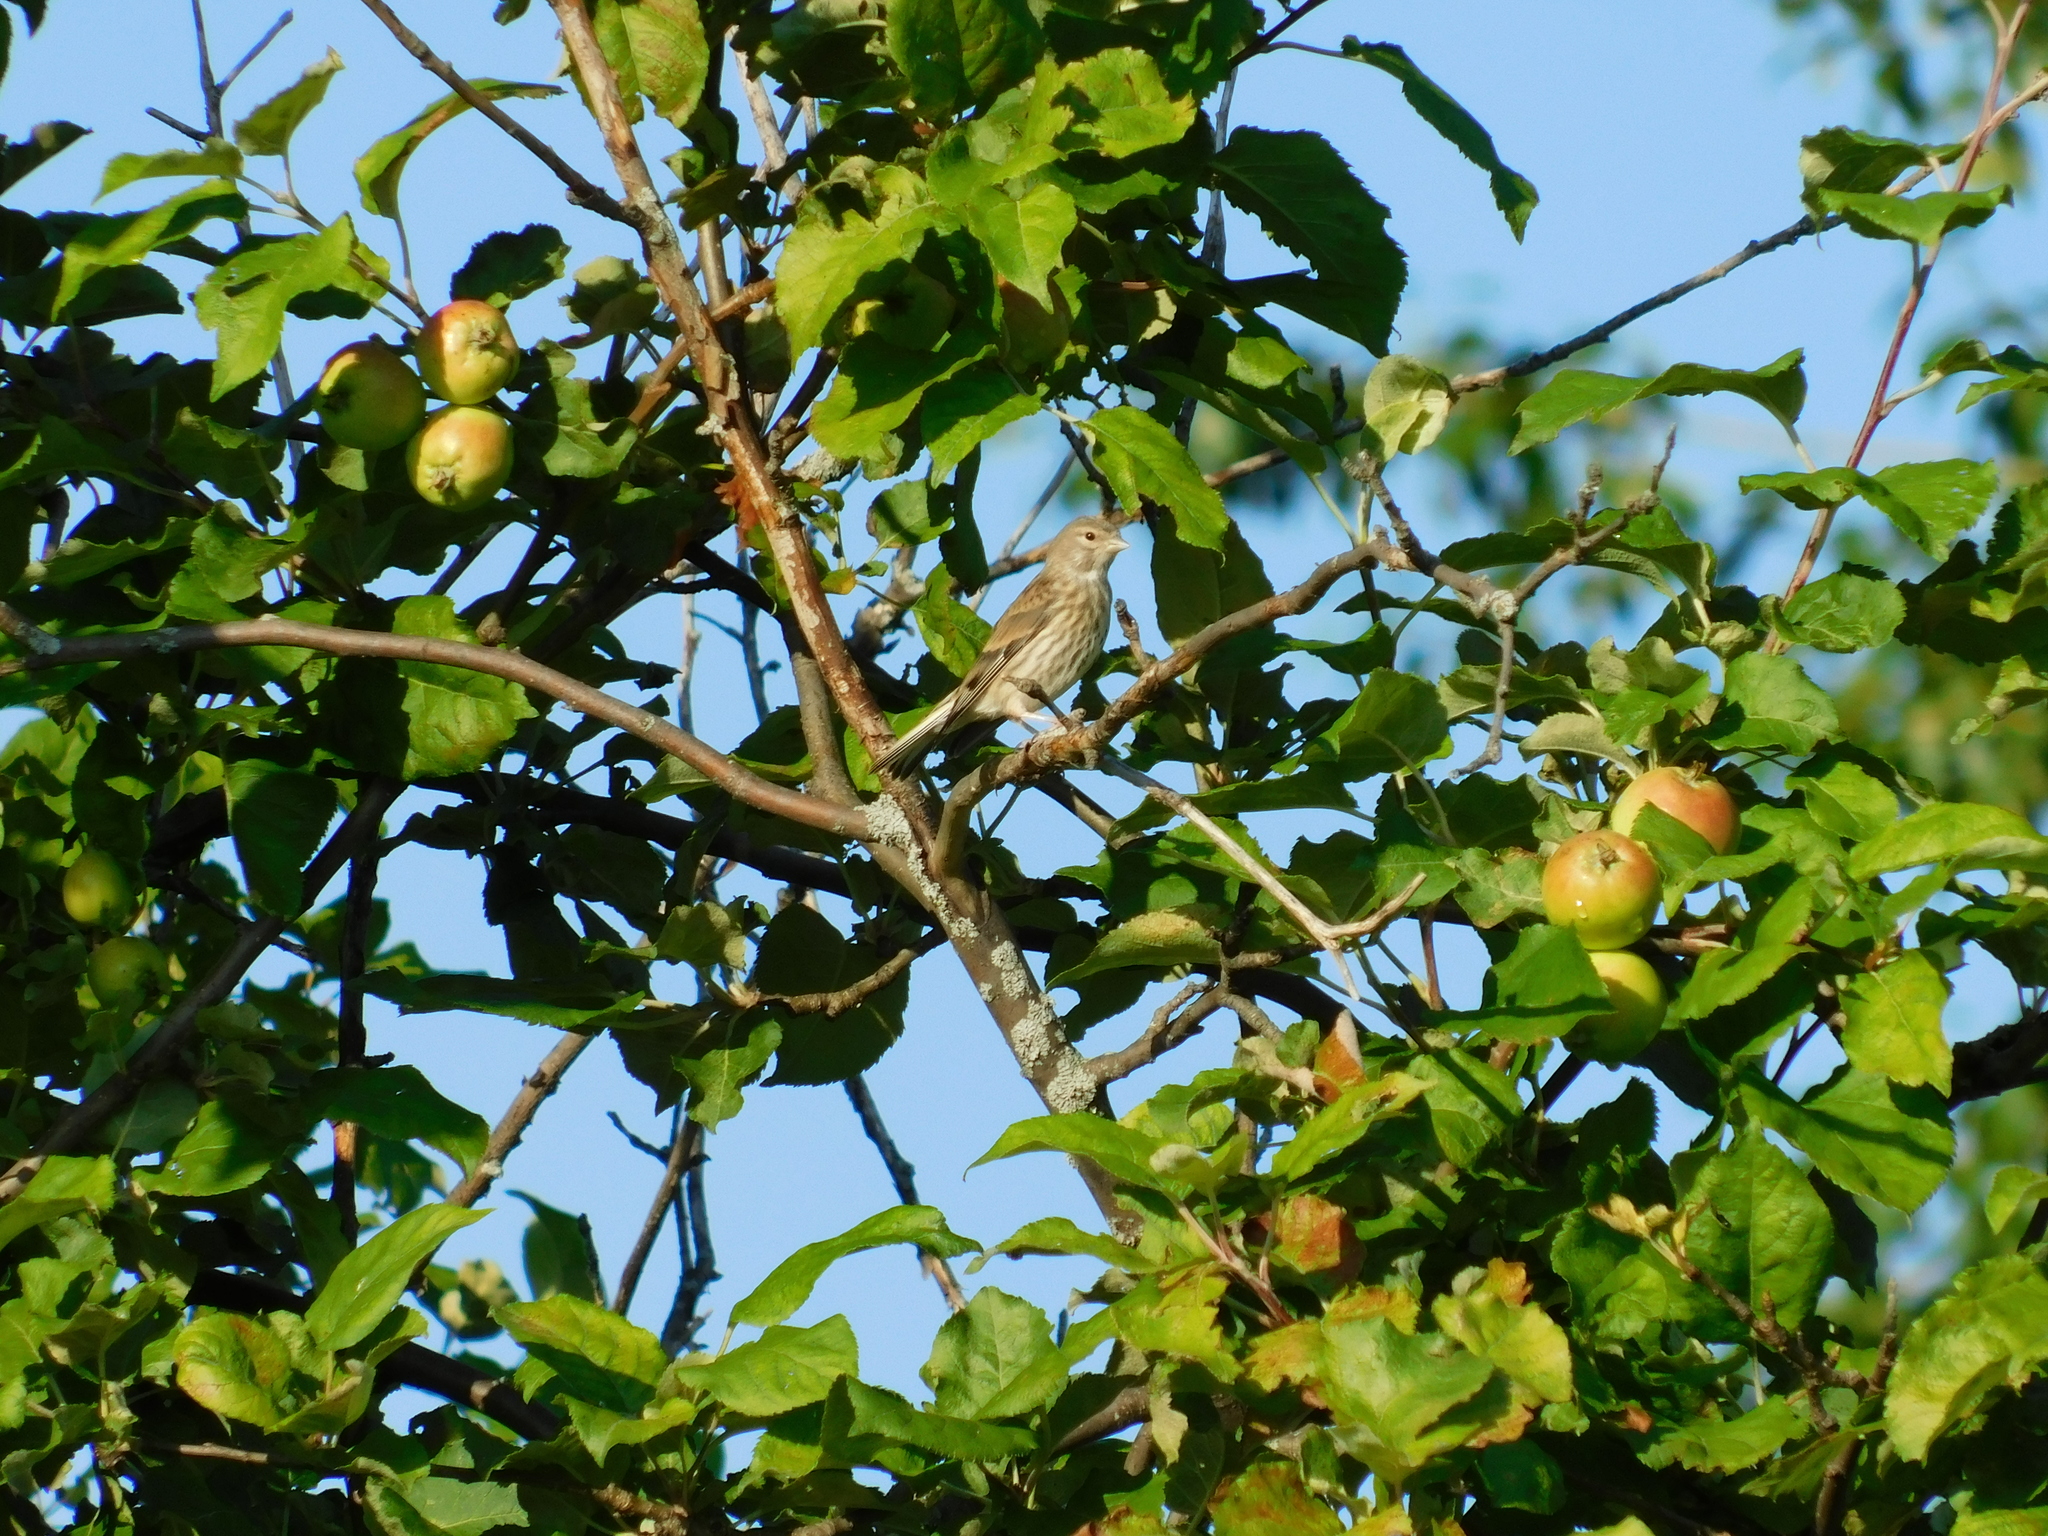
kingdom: Animalia
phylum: Chordata
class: Aves
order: Passeriformes
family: Fringillidae
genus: Linaria
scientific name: Linaria cannabina
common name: Common linnet
